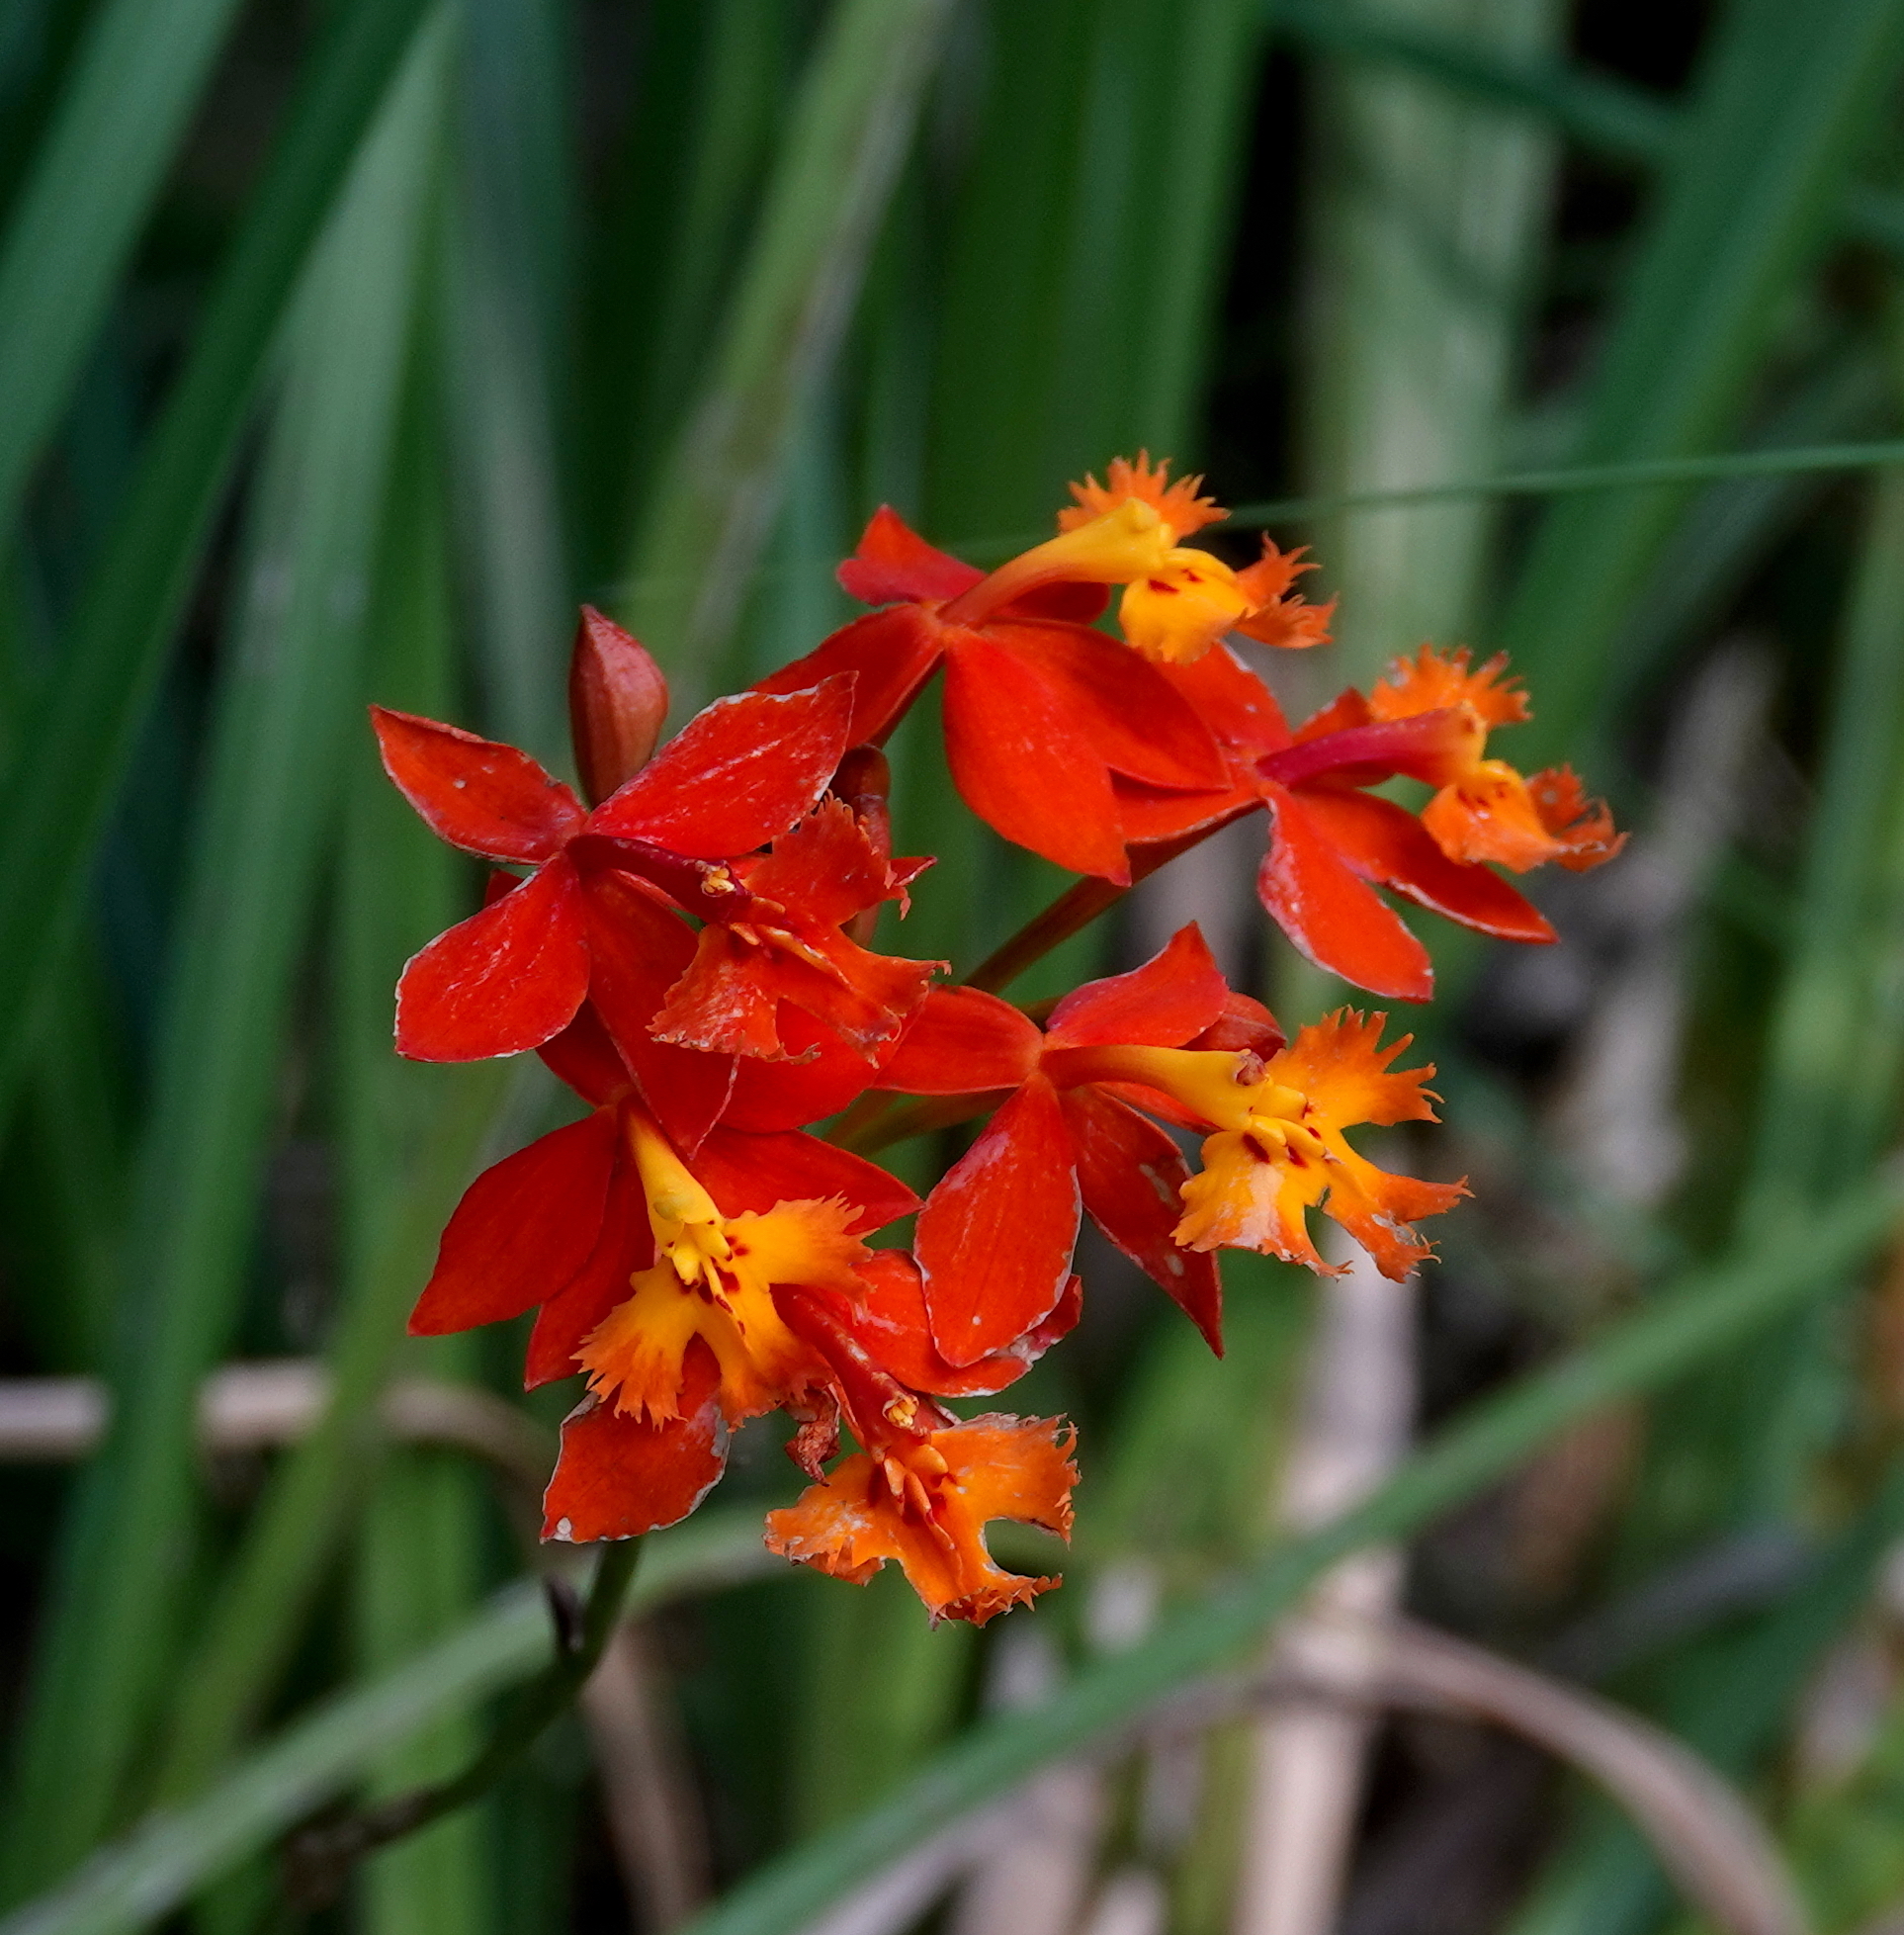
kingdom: Plantae
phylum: Tracheophyta
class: Liliopsida
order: Asparagales
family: Orchidaceae
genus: Epidendrum
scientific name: Epidendrum radicans
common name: Fire star orchid
